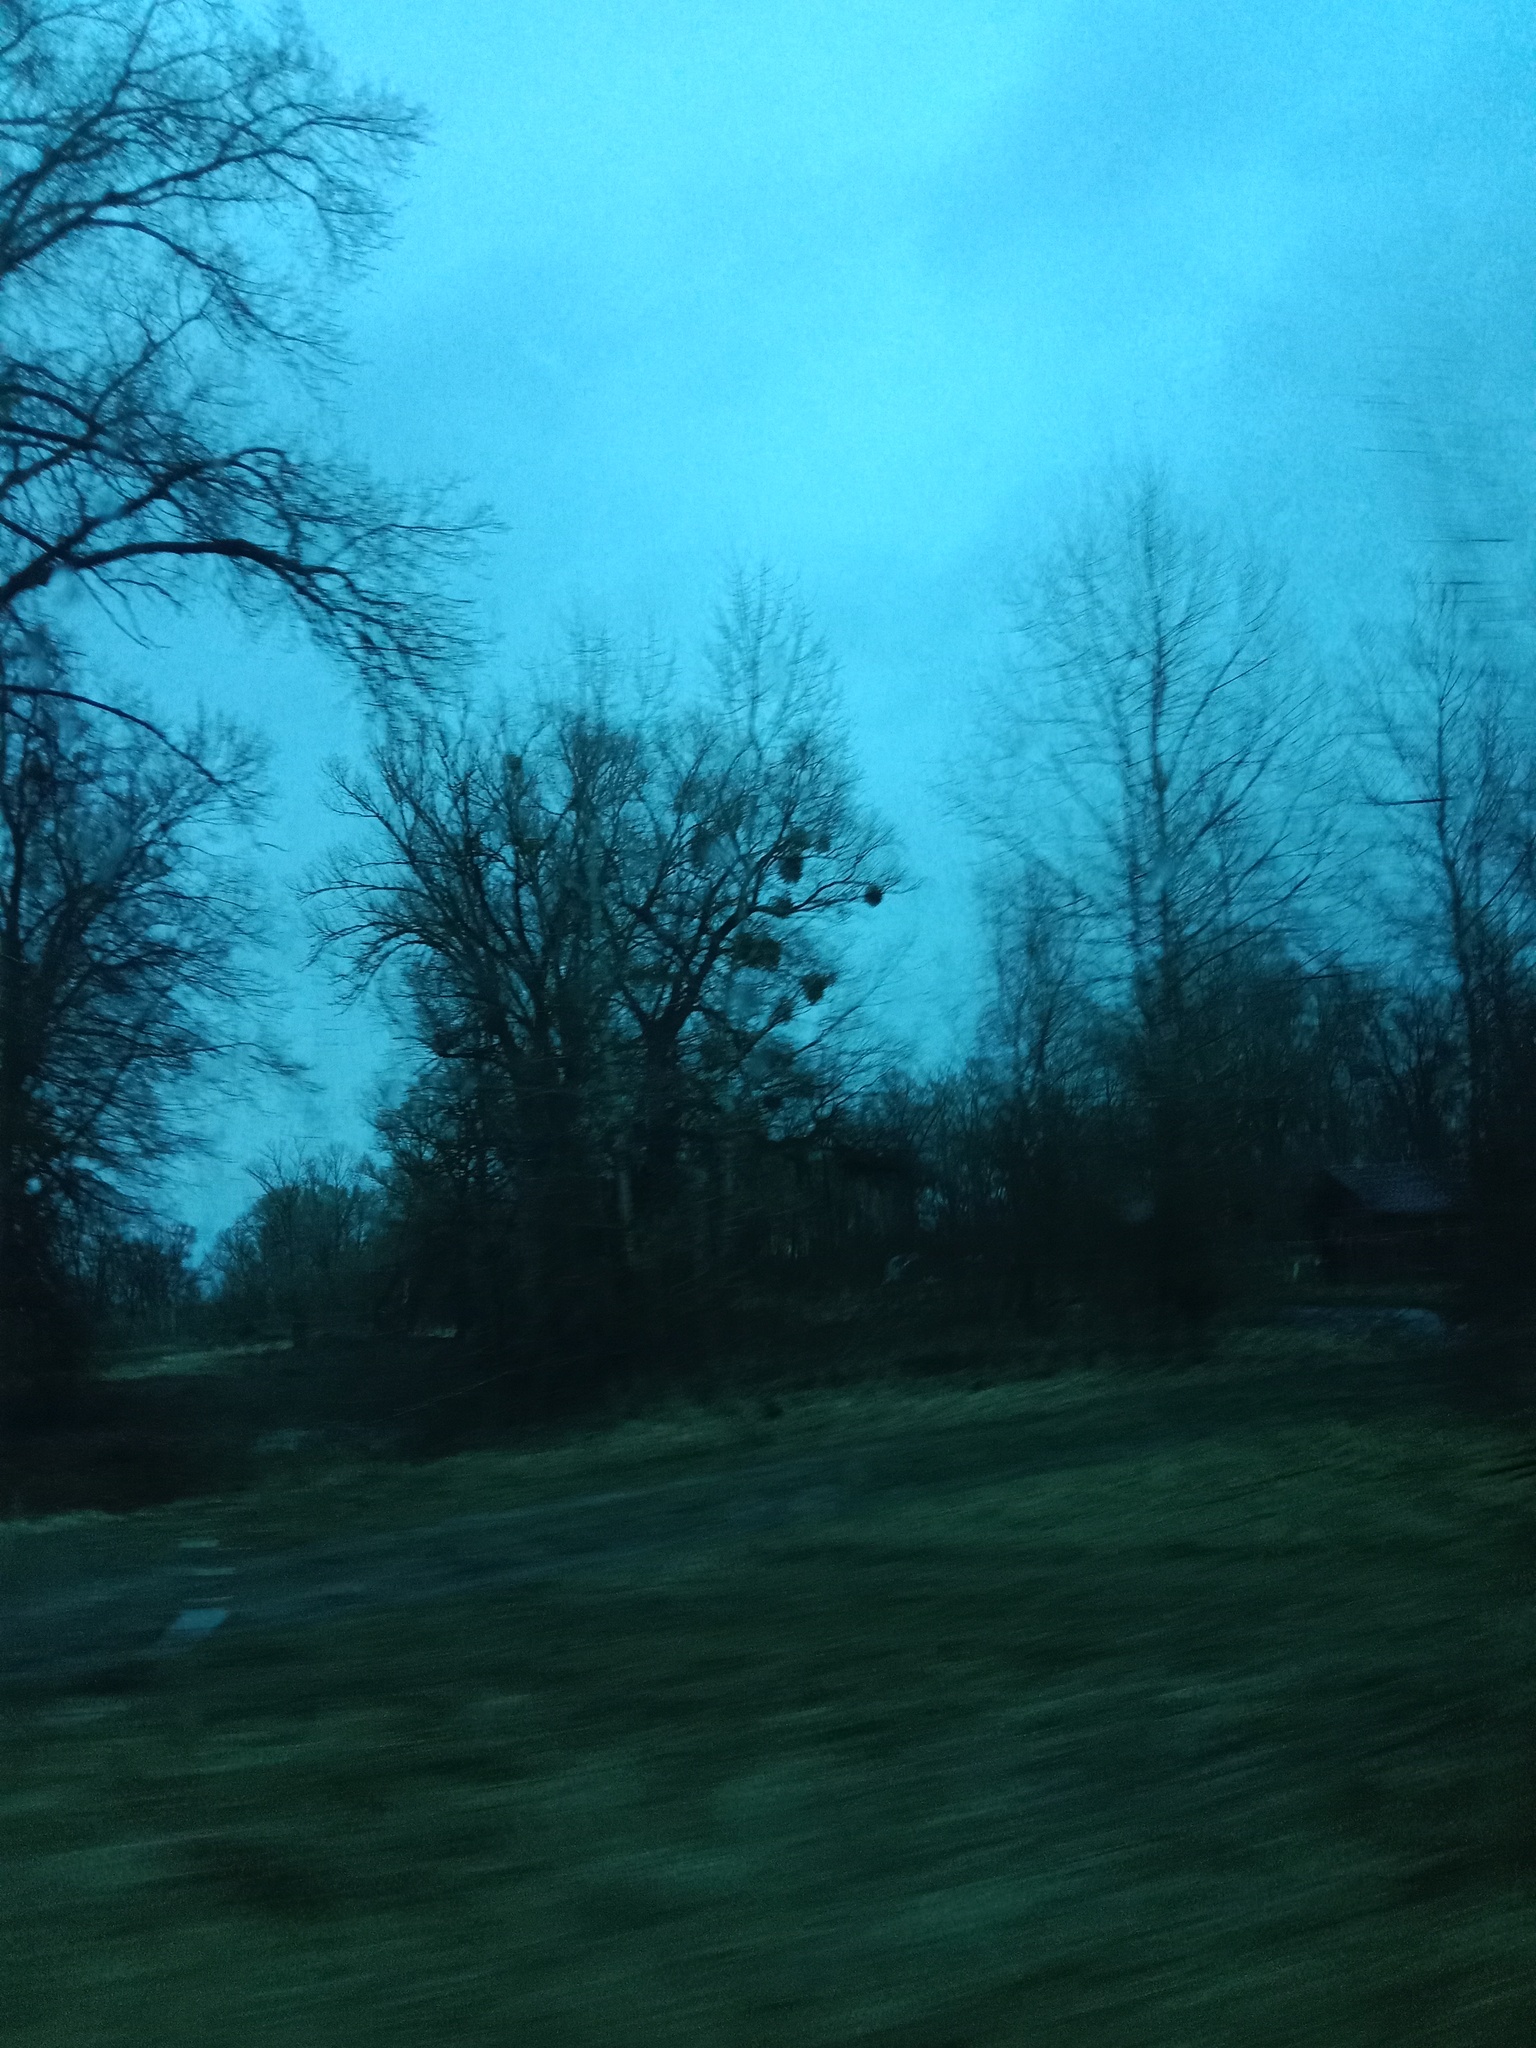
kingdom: Plantae
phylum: Tracheophyta
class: Magnoliopsida
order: Santalales
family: Viscaceae
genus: Viscum
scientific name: Viscum album
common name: Mistletoe
